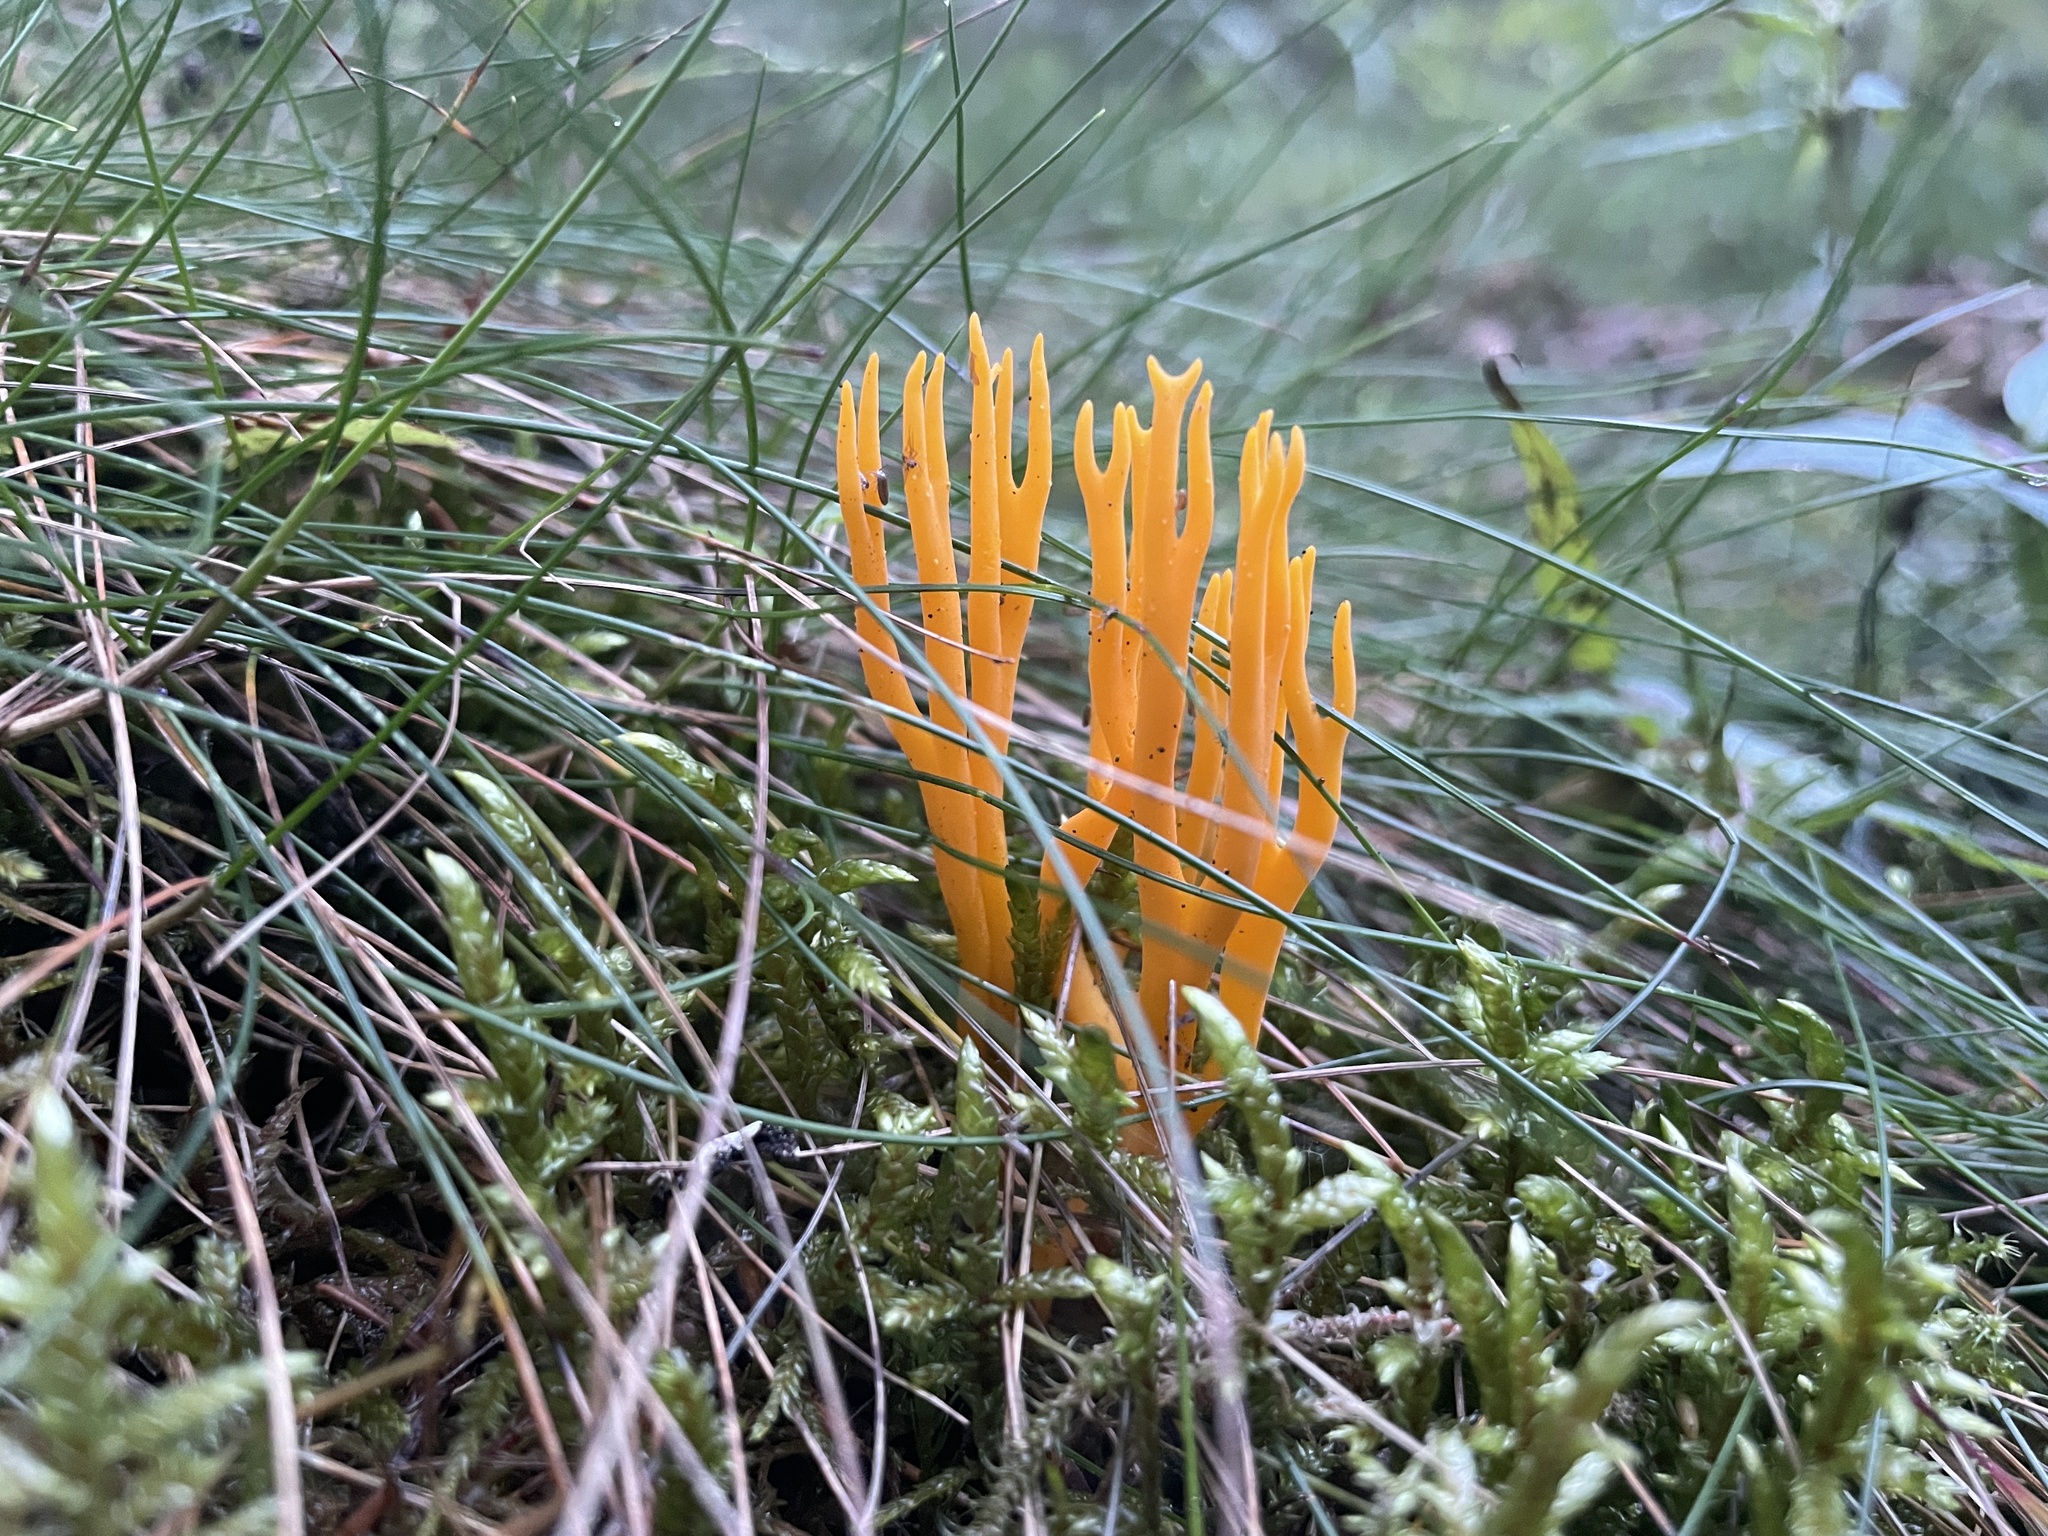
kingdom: Fungi
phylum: Basidiomycota
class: Dacrymycetes
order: Dacrymycetales
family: Dacrymycetaceae
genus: Calocera
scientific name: Calocera viscosa
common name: Yellow stagshorn
